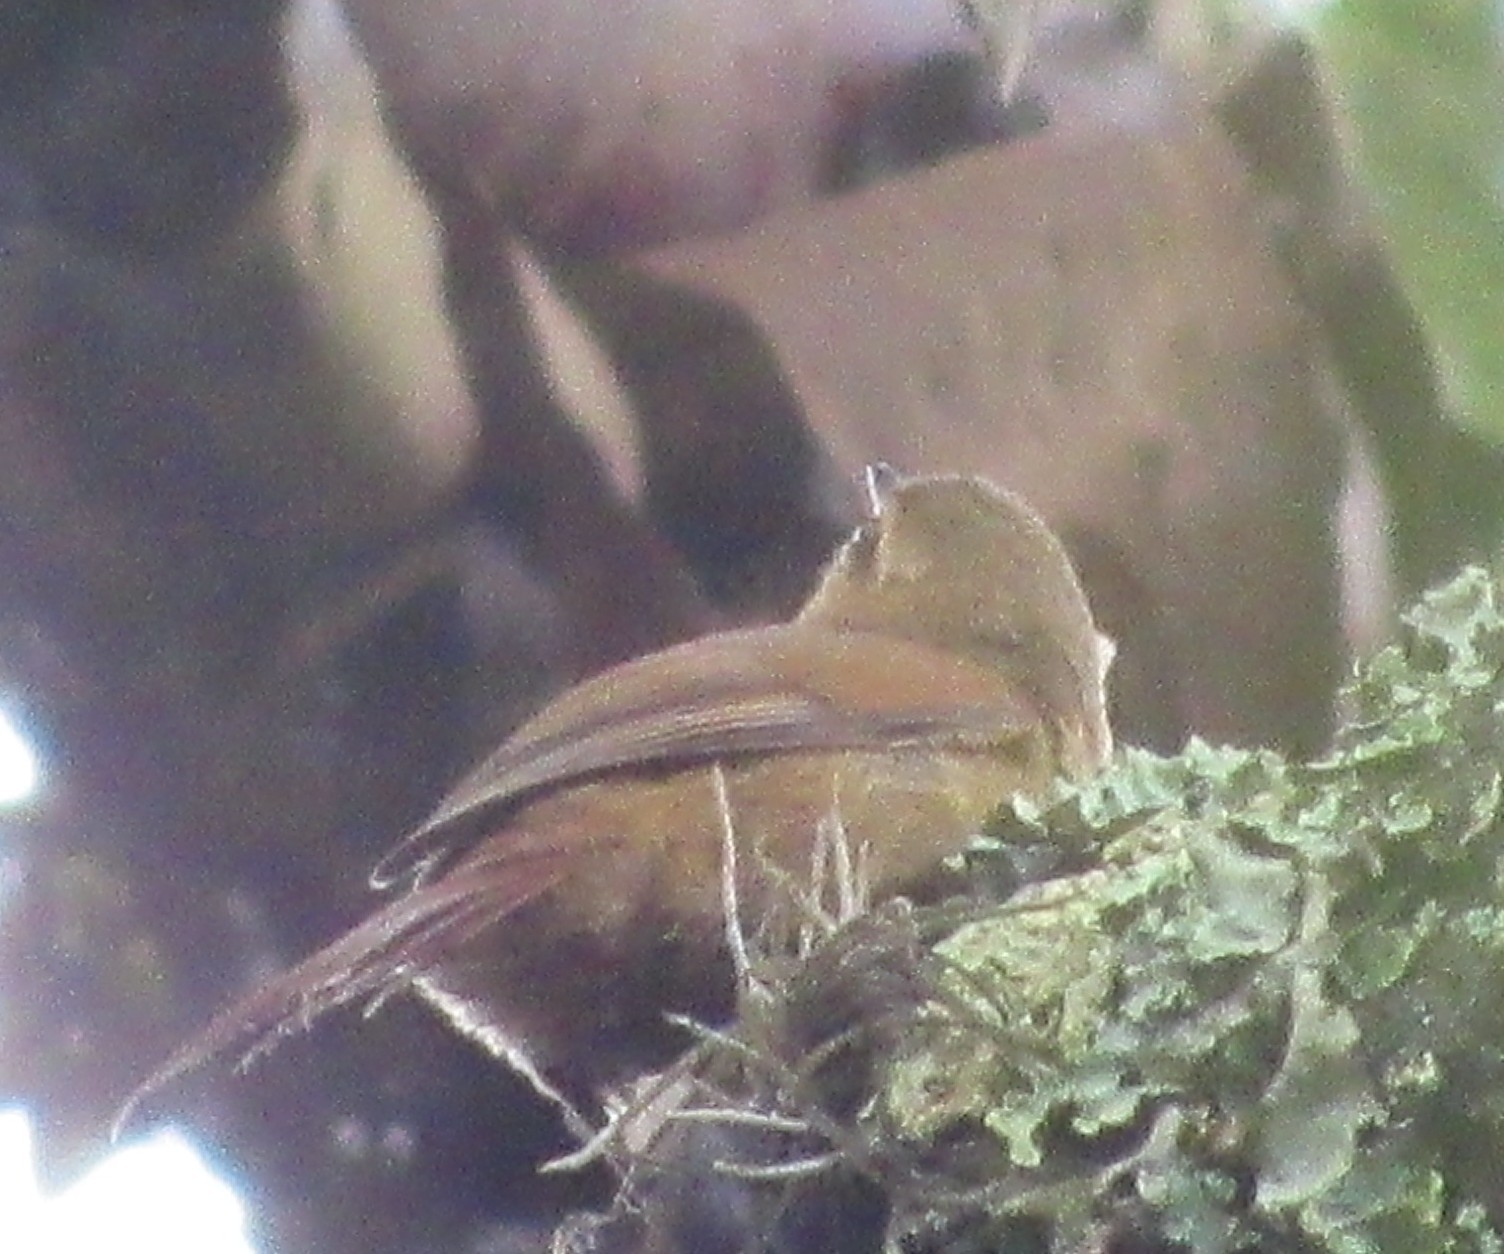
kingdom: Animalia
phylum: Chordata
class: Aves
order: Passeriformes
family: Furnariidae
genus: Cranioleuca
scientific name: Cranioleuca obsoleta
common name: Olive spinetail
